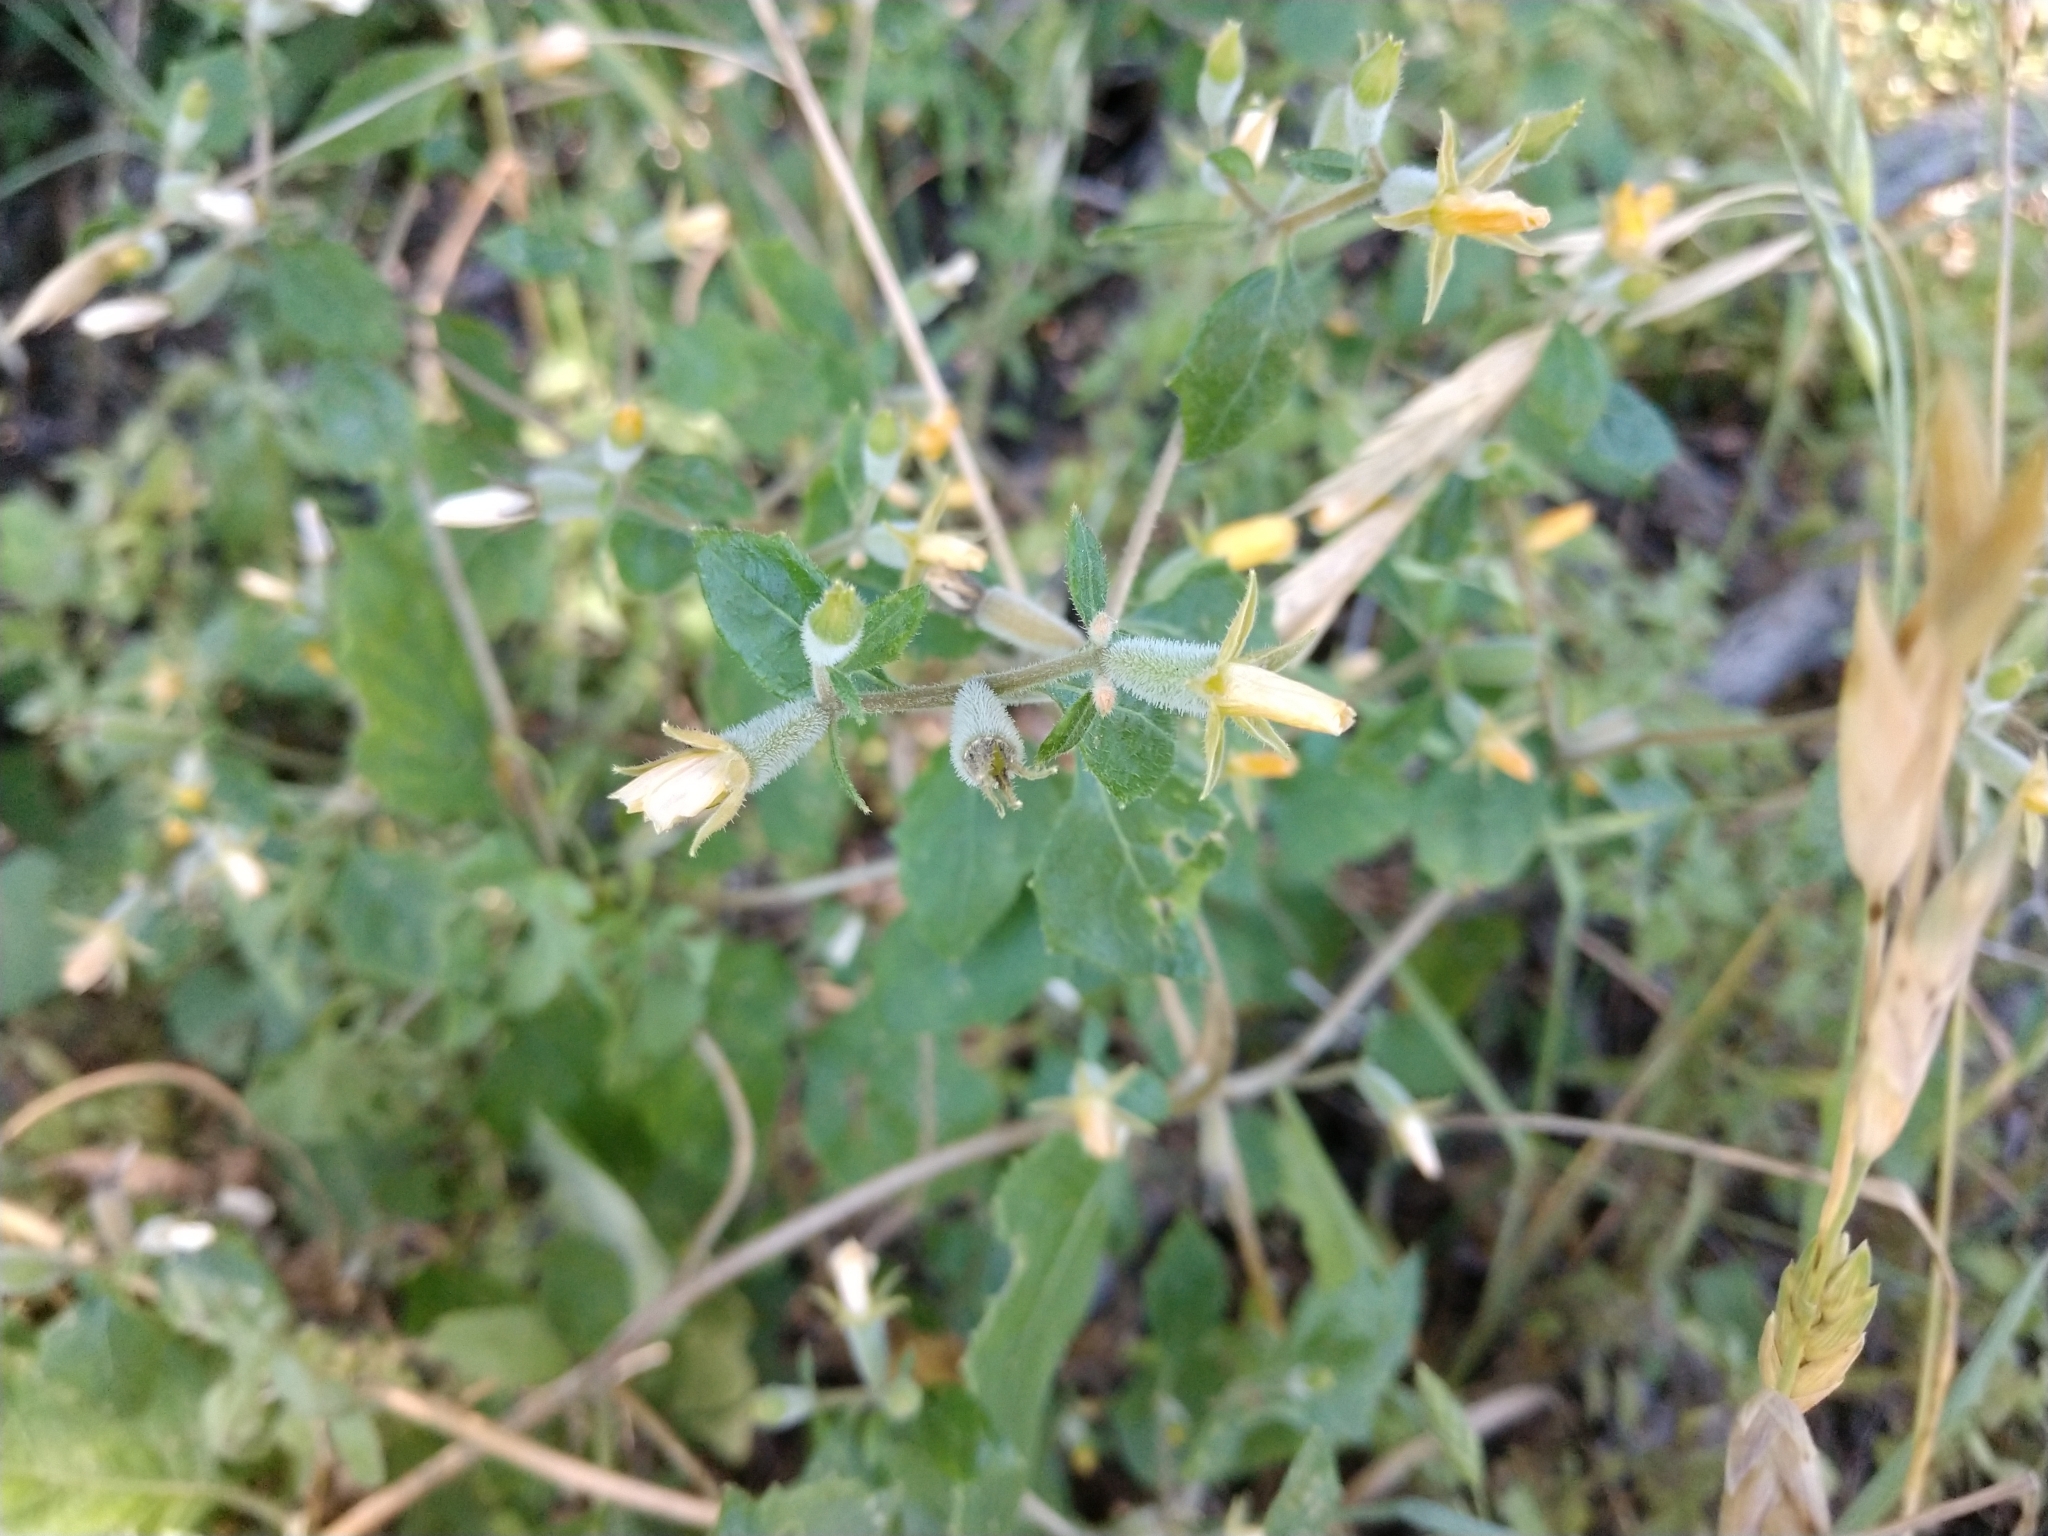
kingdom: Plantae
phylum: Tracheophyta
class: Magnoliopsida
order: Cornales
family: Loasaceae
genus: Mentzelia
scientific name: Mentzelia oligosperma
